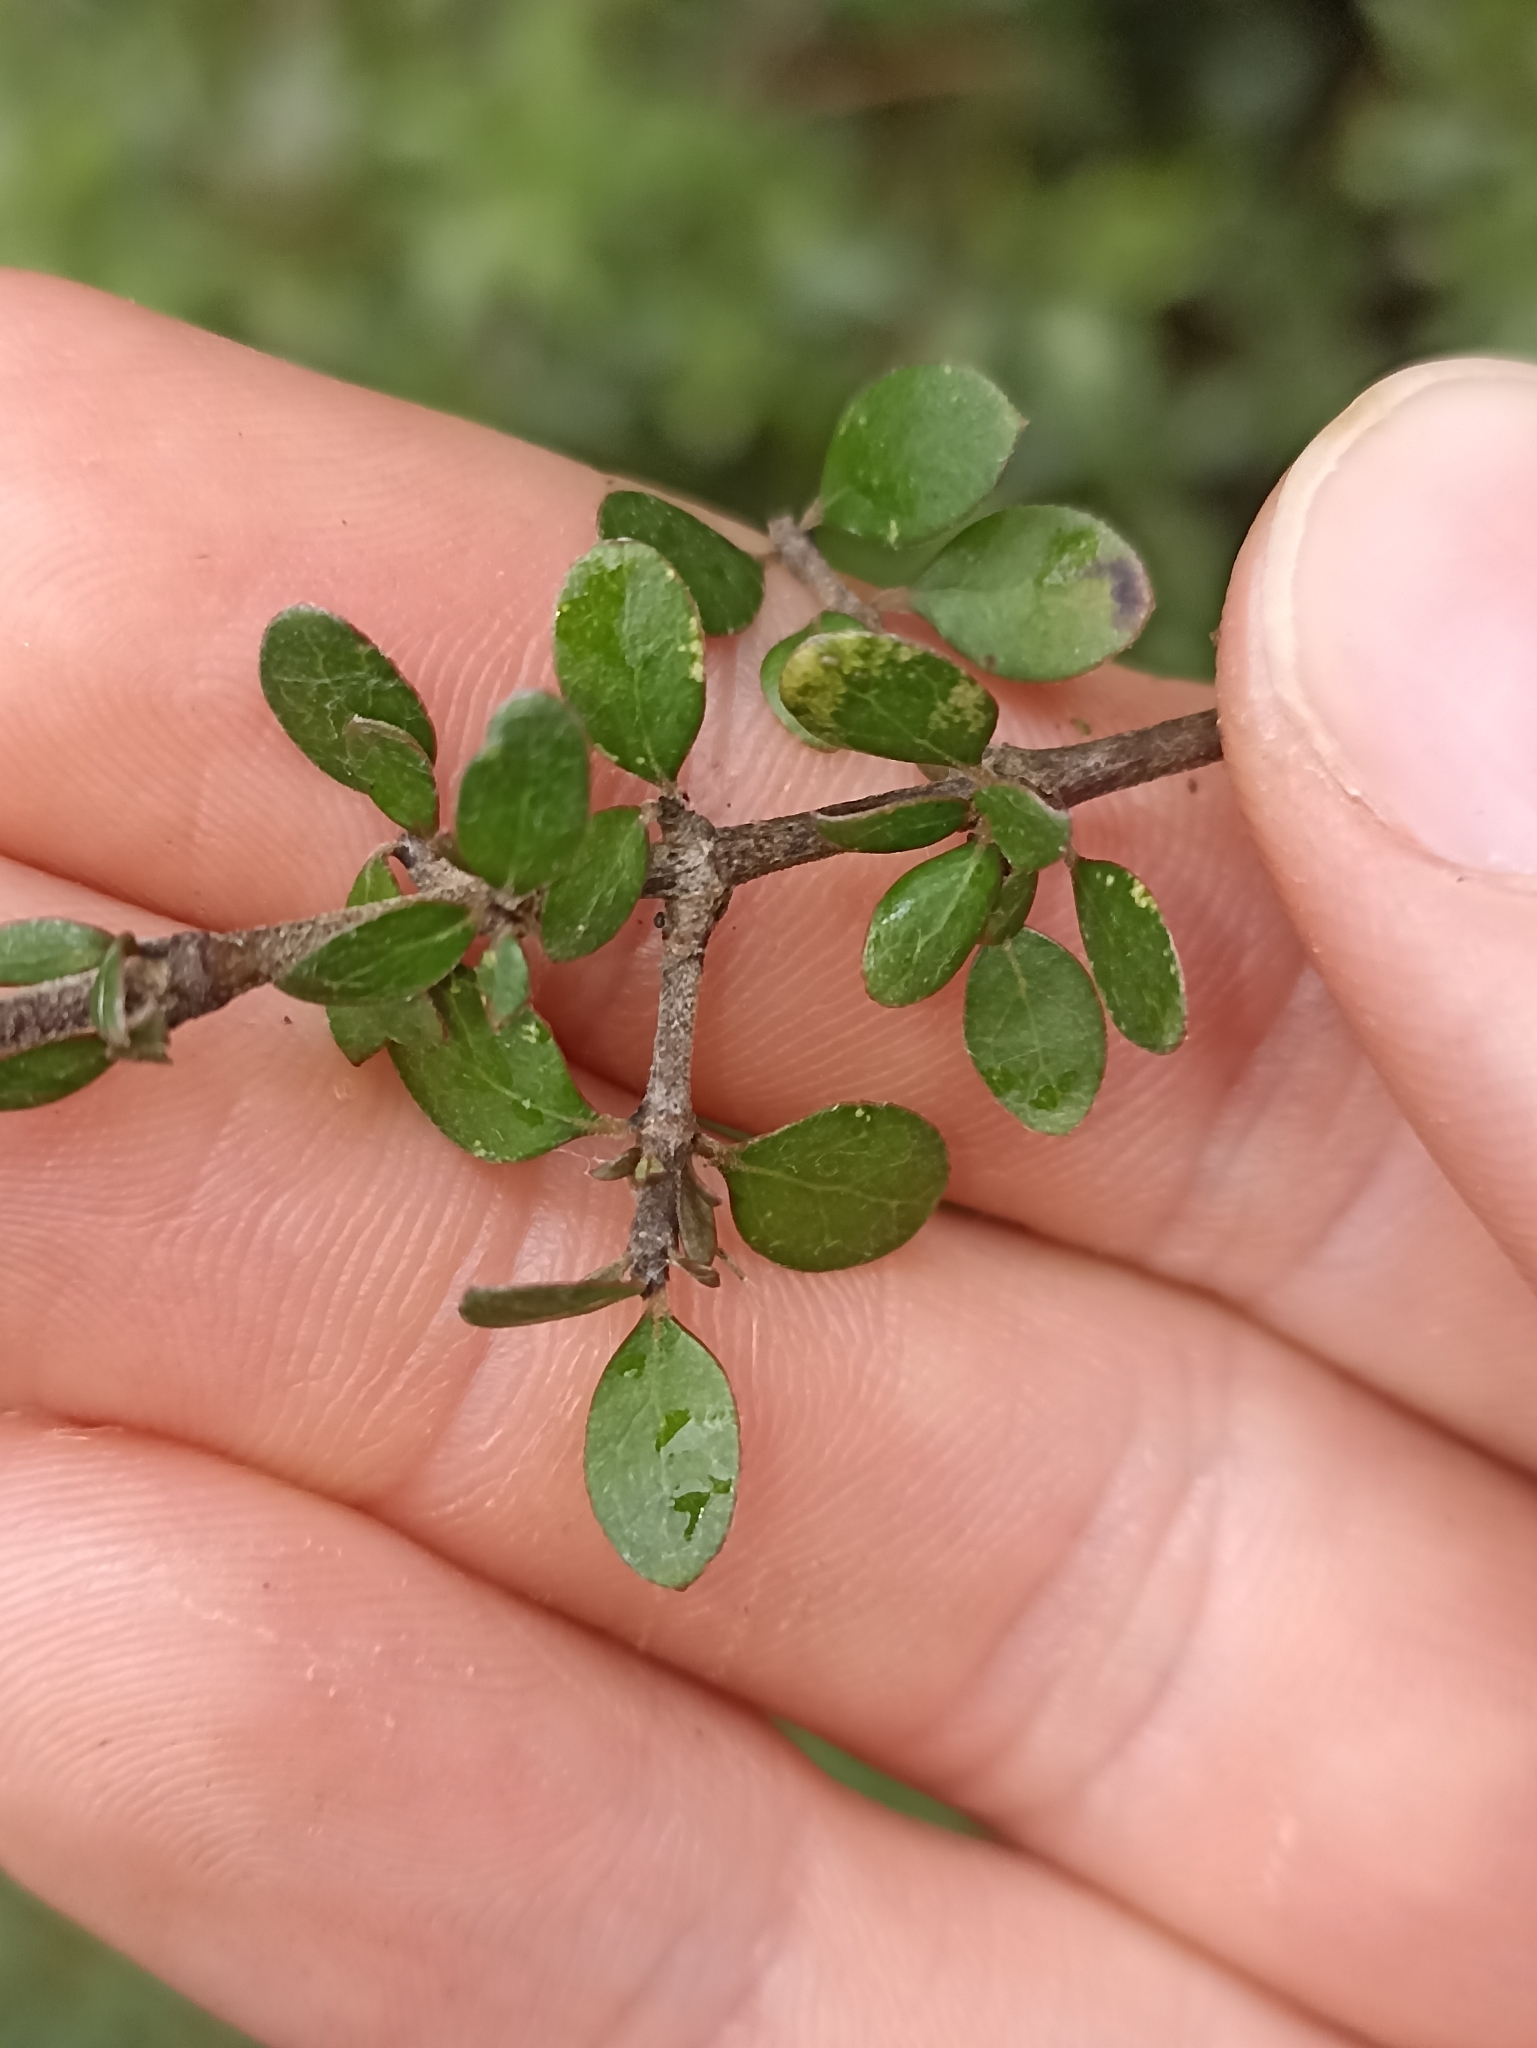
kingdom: Plantae
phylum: Tracheophyta
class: Magnoliopsida
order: Gentianales
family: Rubiaceae
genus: Coprosma
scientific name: Coprosma wallii
